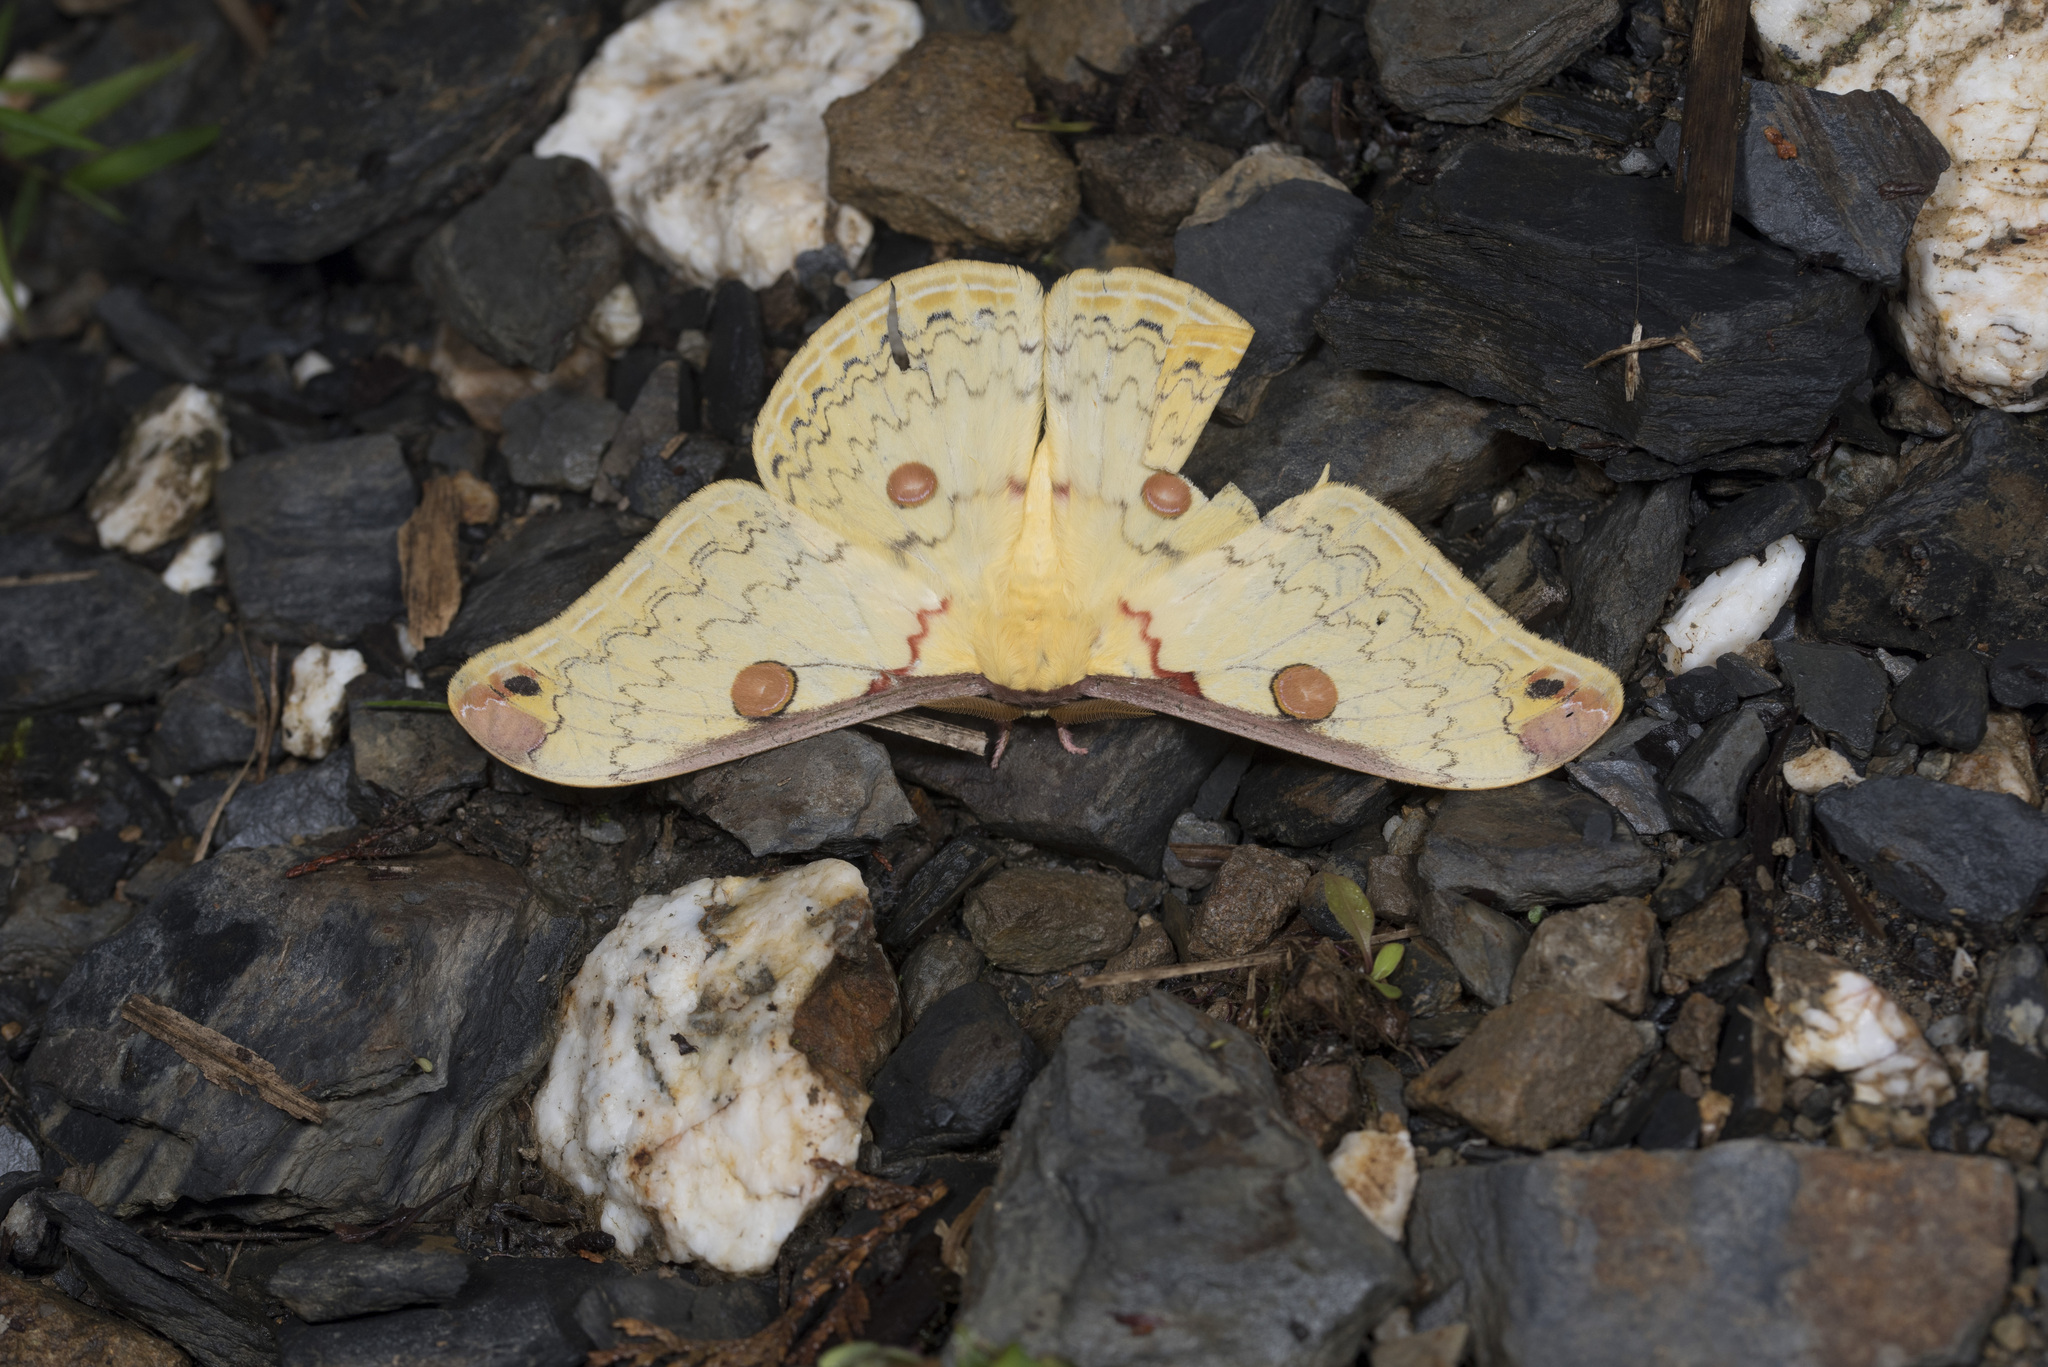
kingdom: Animalia
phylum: Arthropoda
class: Insecta
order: Lepidoptera
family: Saturniidae
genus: Loepa
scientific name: Loepa mirandula
